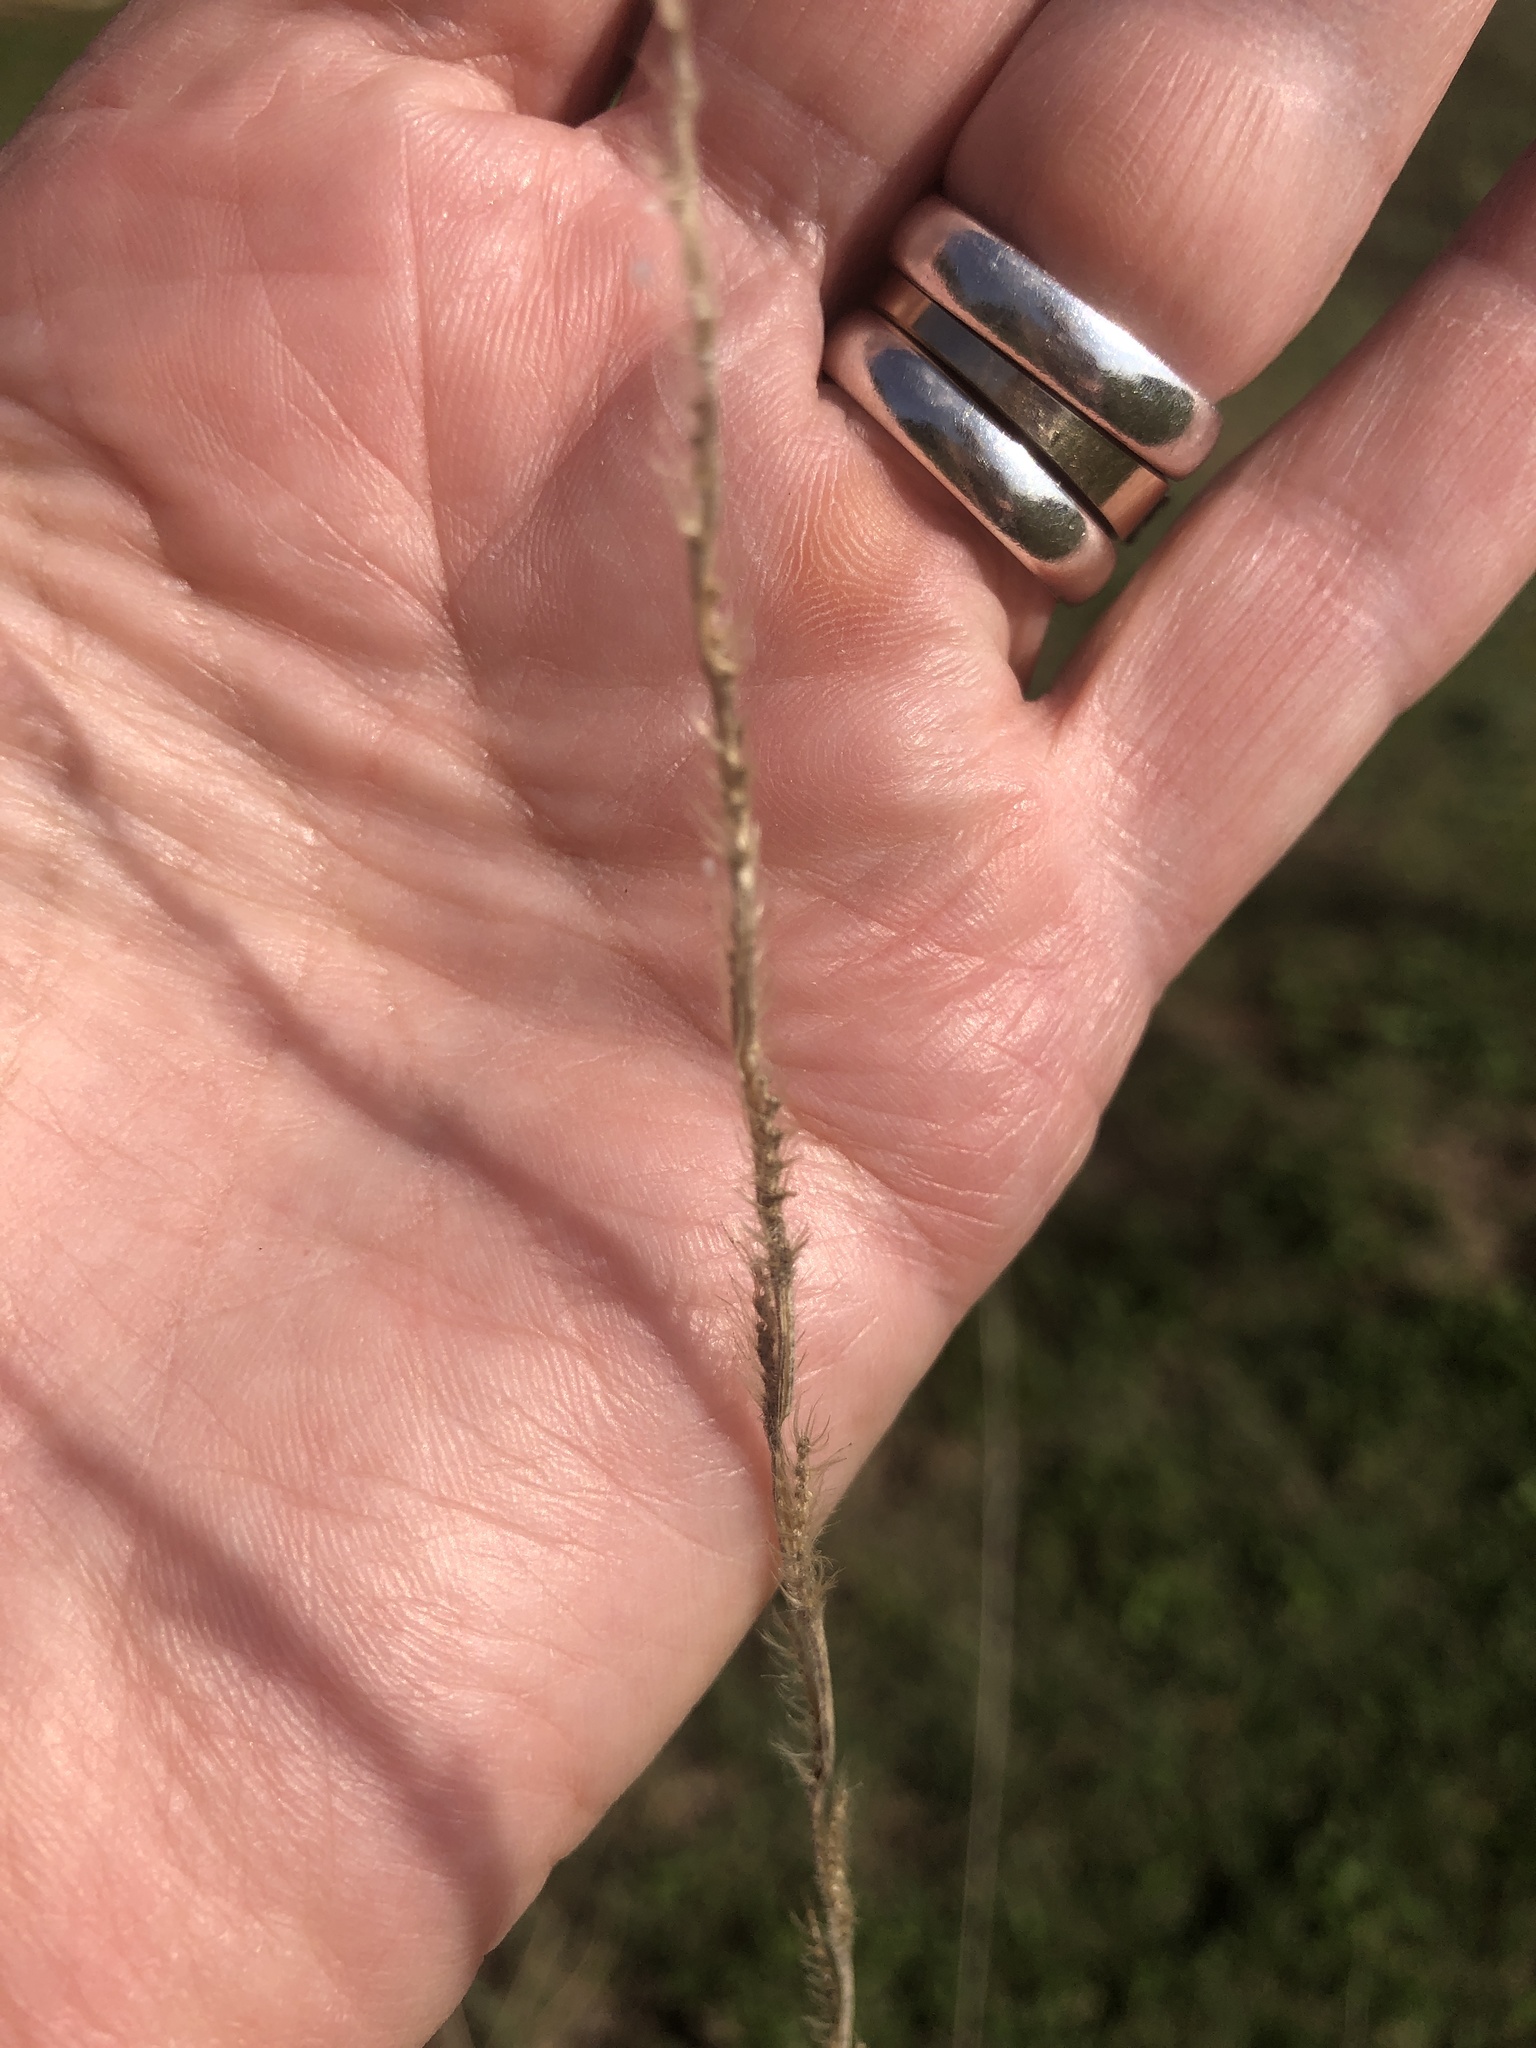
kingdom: Plantae
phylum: Tracheophyta
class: Liliopsida
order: Poales
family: Poaceae
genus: Eriochloa
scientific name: Eriochloa sericea
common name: Texas cup grass
